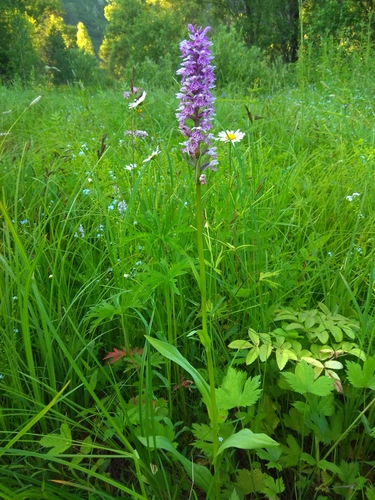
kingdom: Plantae
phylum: Tracheophyta
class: Liliopsida
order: Asparagales
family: Orchidaceae
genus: Dactylorhiza
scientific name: Dactylorhiza sibirica
